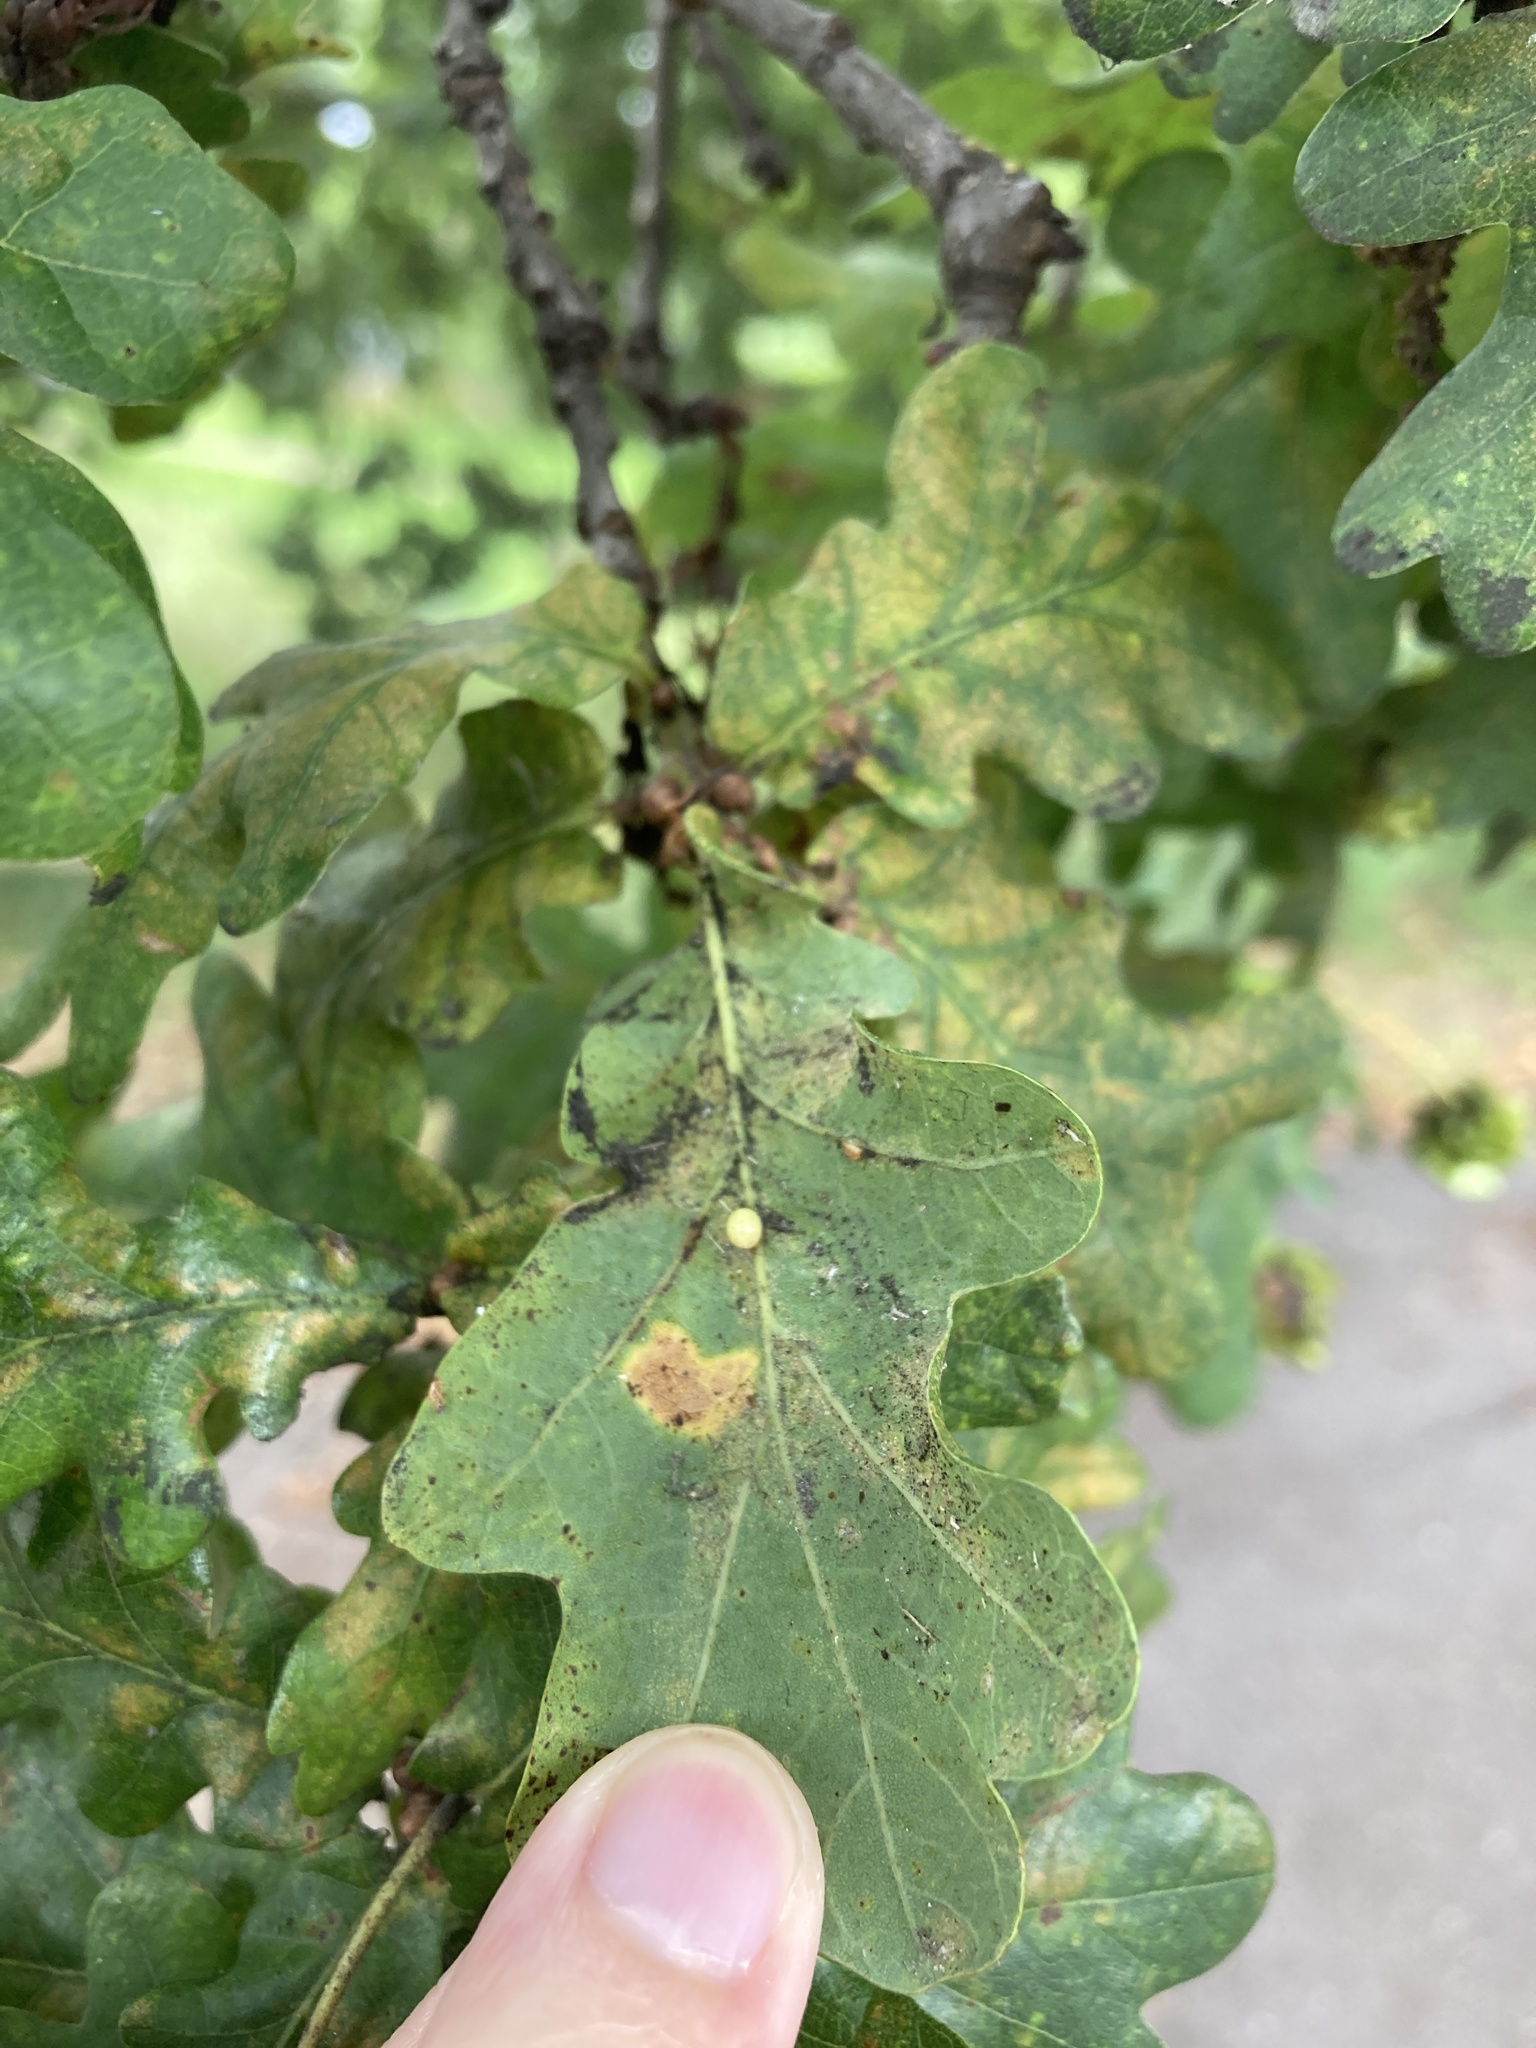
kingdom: Animalia
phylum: Arthropoda
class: Insecta
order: Hymenoptera
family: Cynipidae
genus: Neuroterus
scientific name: Neuroterus anthracinus
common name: Oyster gall
